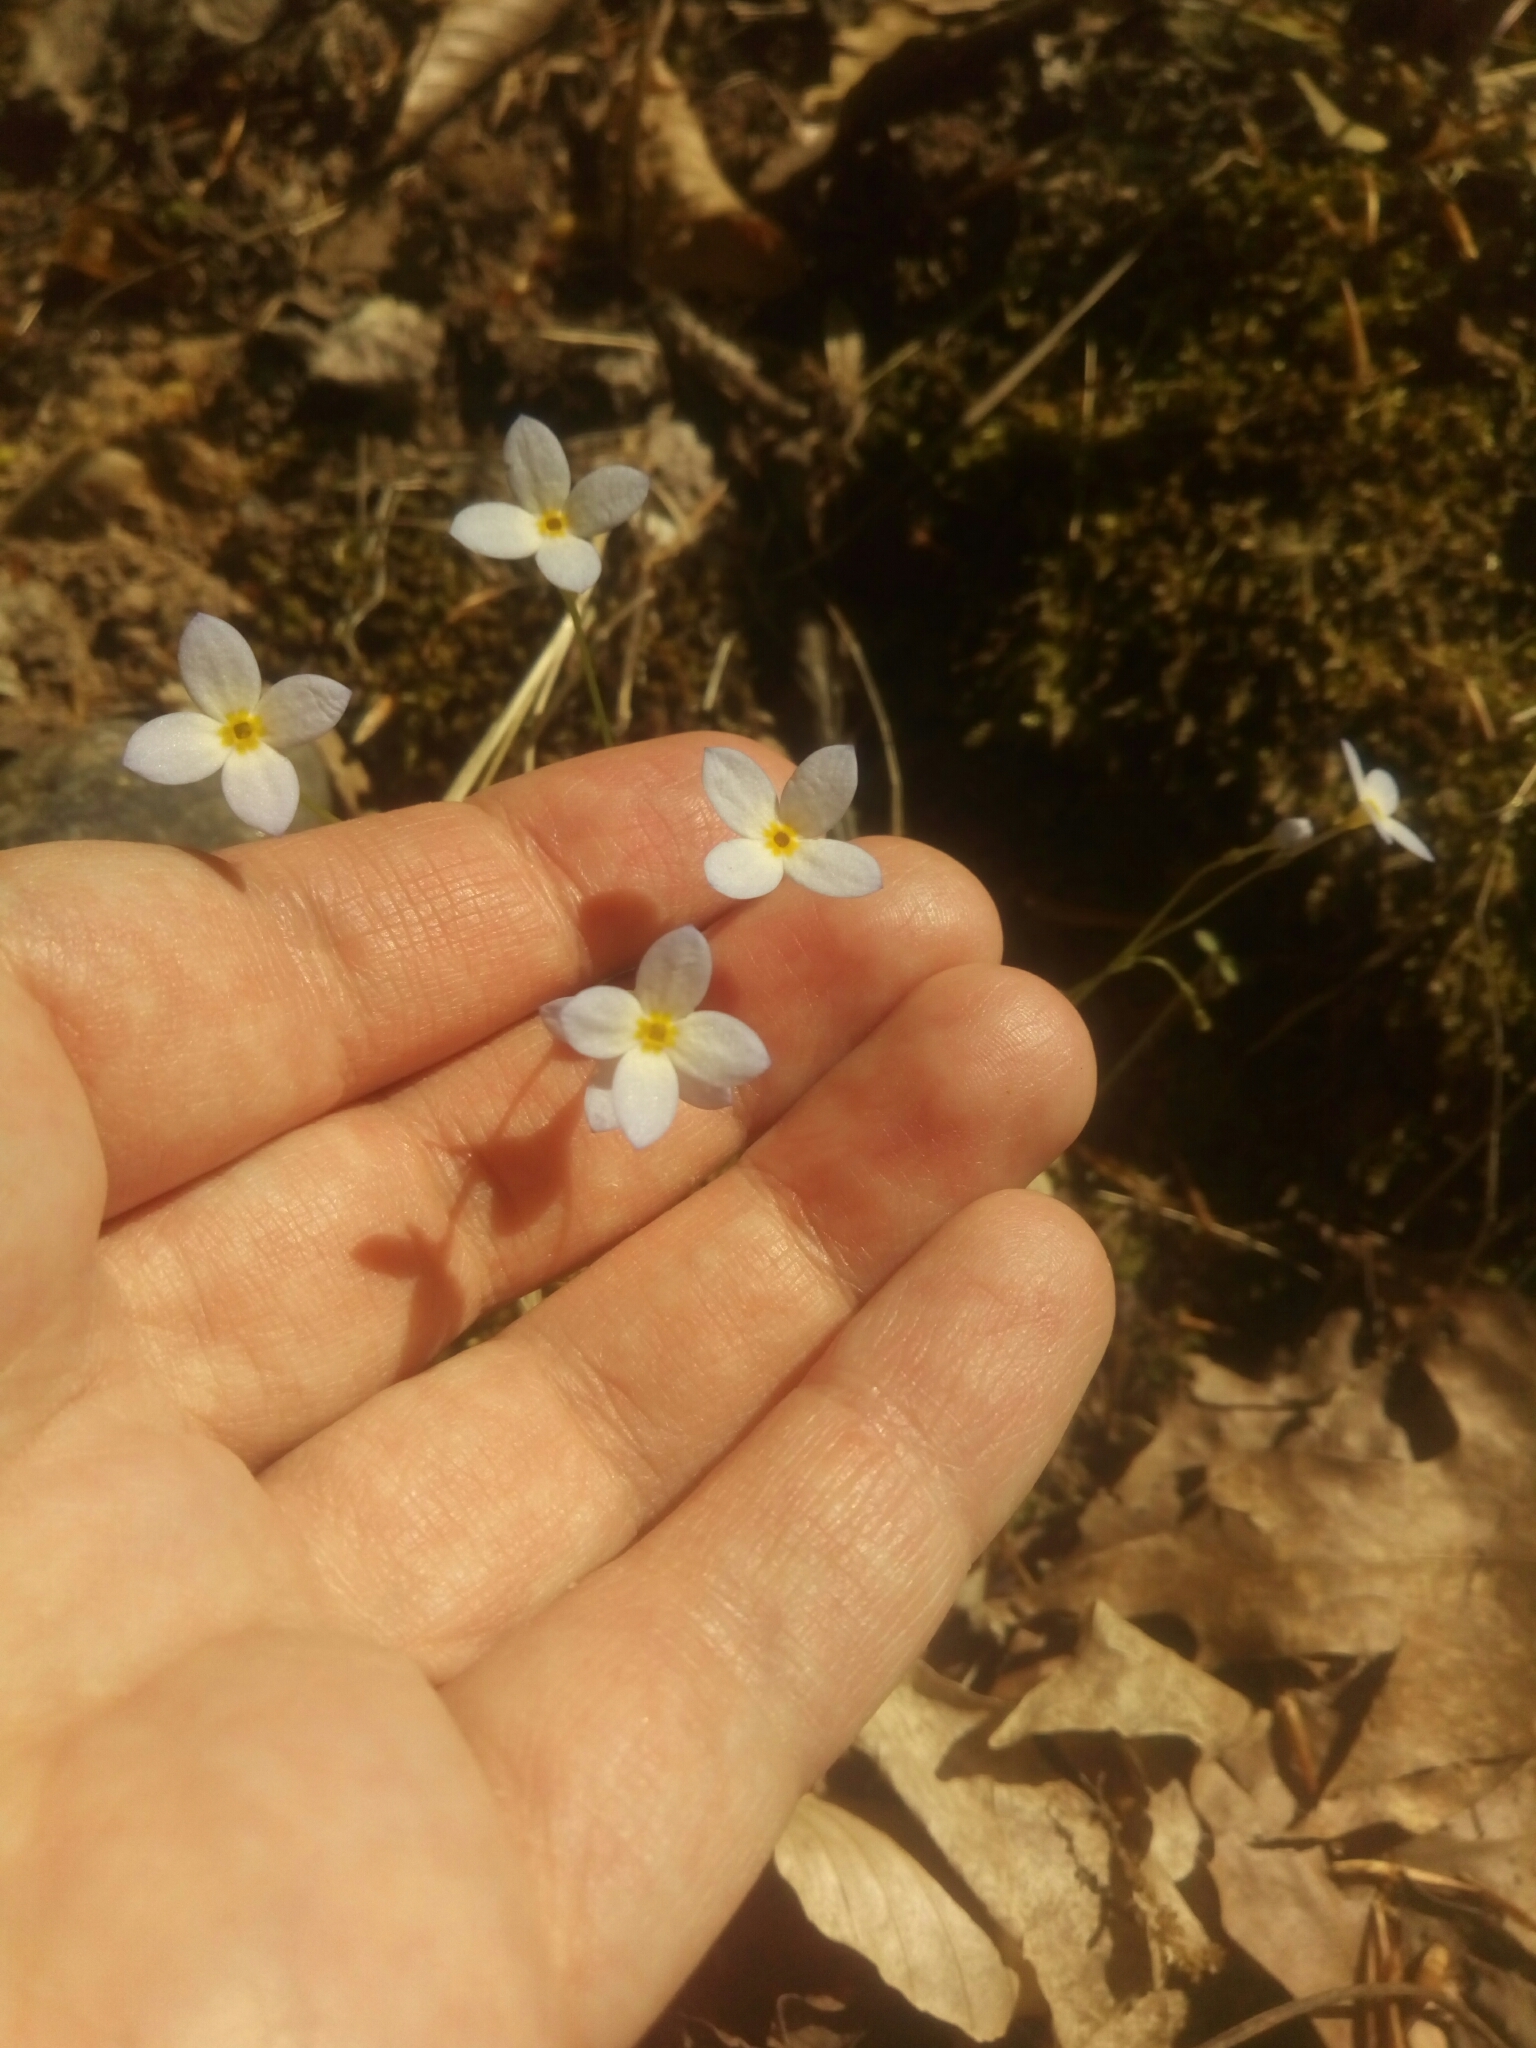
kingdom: Plantae
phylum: Tracheophyta
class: Magnoliopsida
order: Gentianales
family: Rubiaceae
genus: Houstonia
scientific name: Houstonia caerulea
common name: Bluets
